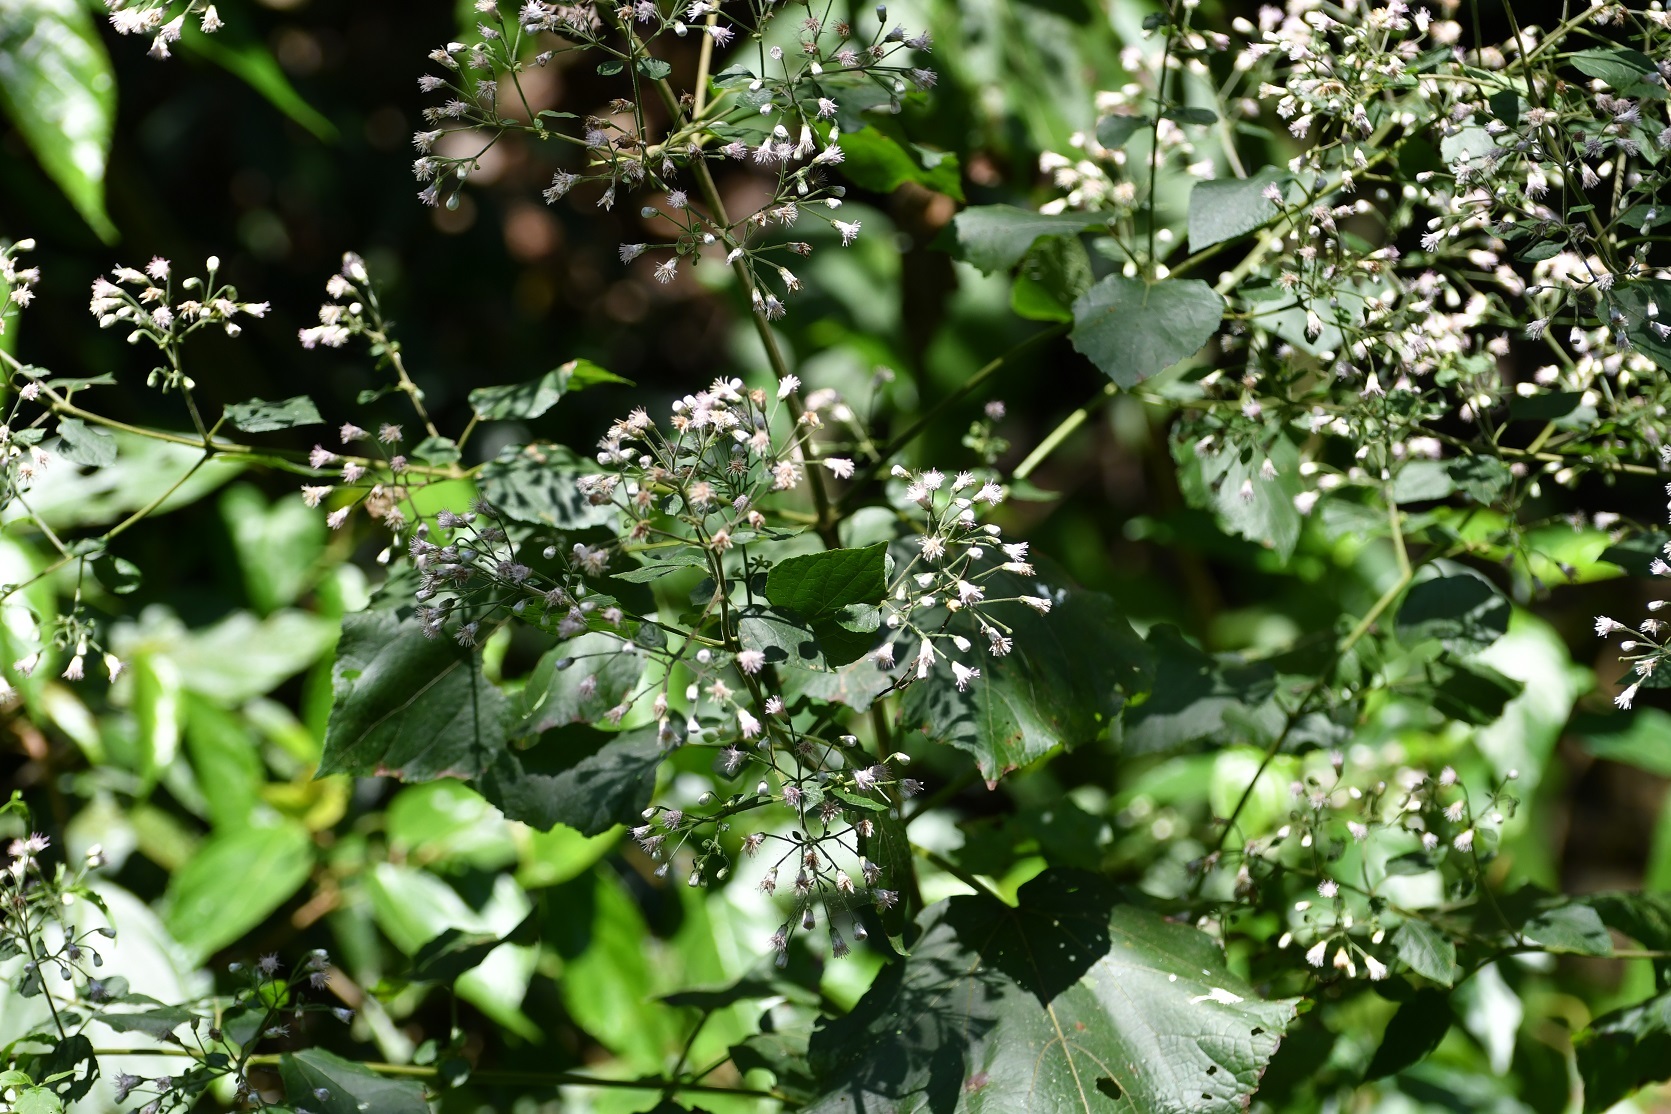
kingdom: Plantae
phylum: Tracheophyta
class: Magnoliopsida
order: Asterales
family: Asteraceae
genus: Peteravenia
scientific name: Peteravenia schultzii
